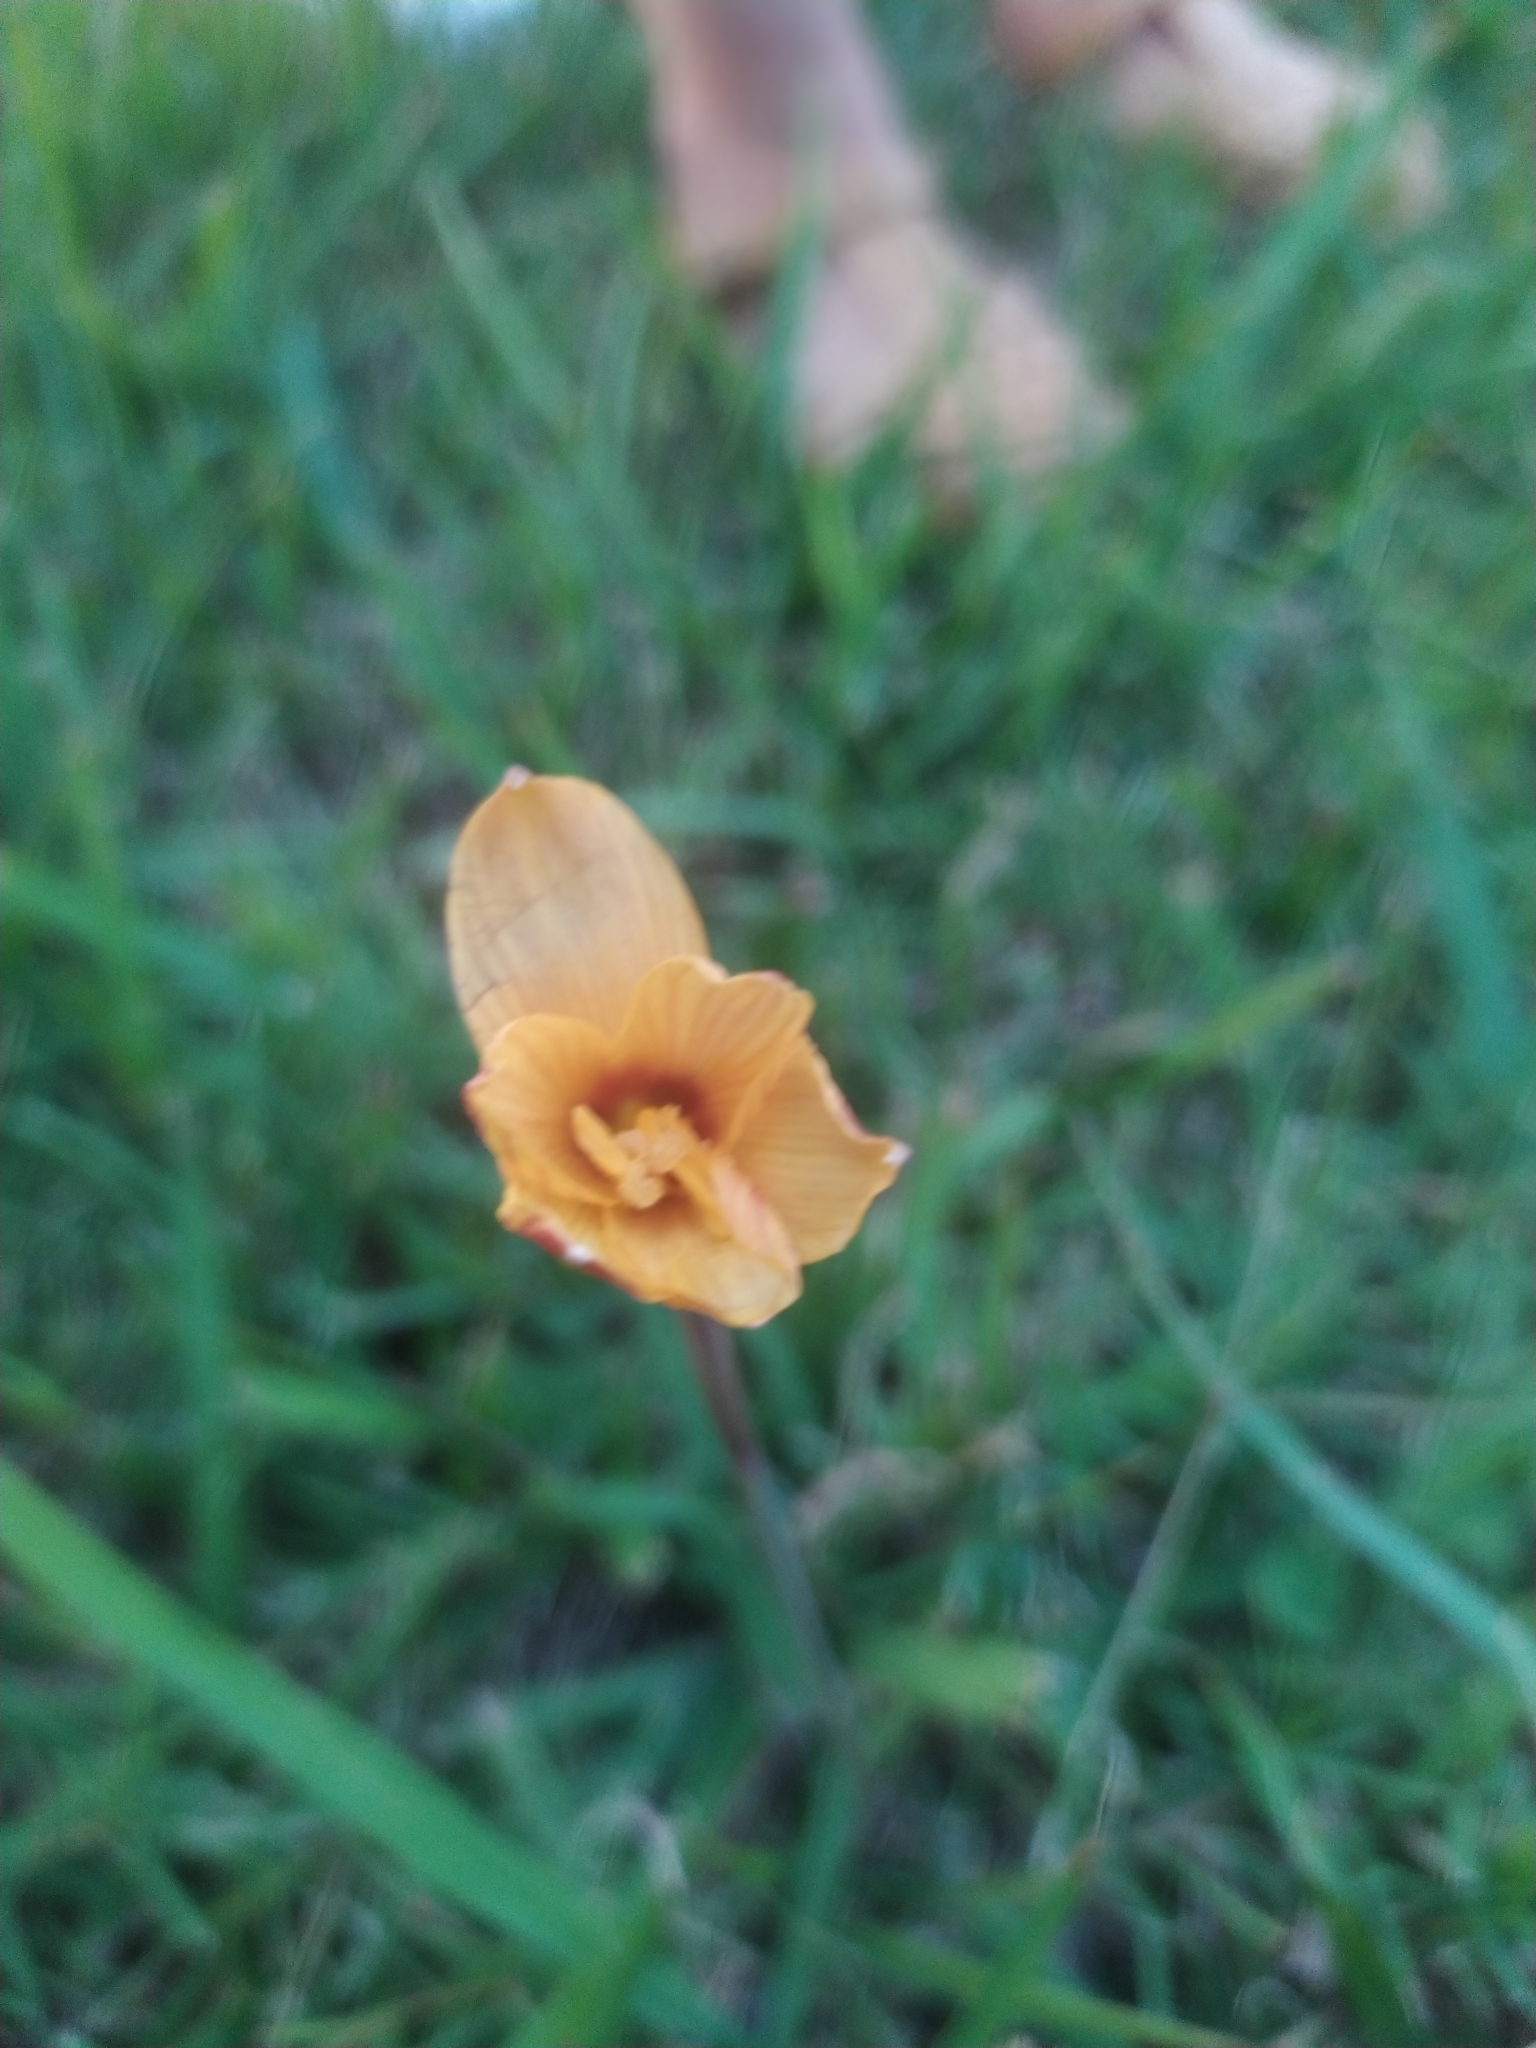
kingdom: Plantae
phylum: Tracheophyta
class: Liliopsida
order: Asparagales
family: Amaryllidaceae
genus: Zephyranthes
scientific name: Zephyranthes tubispatha
